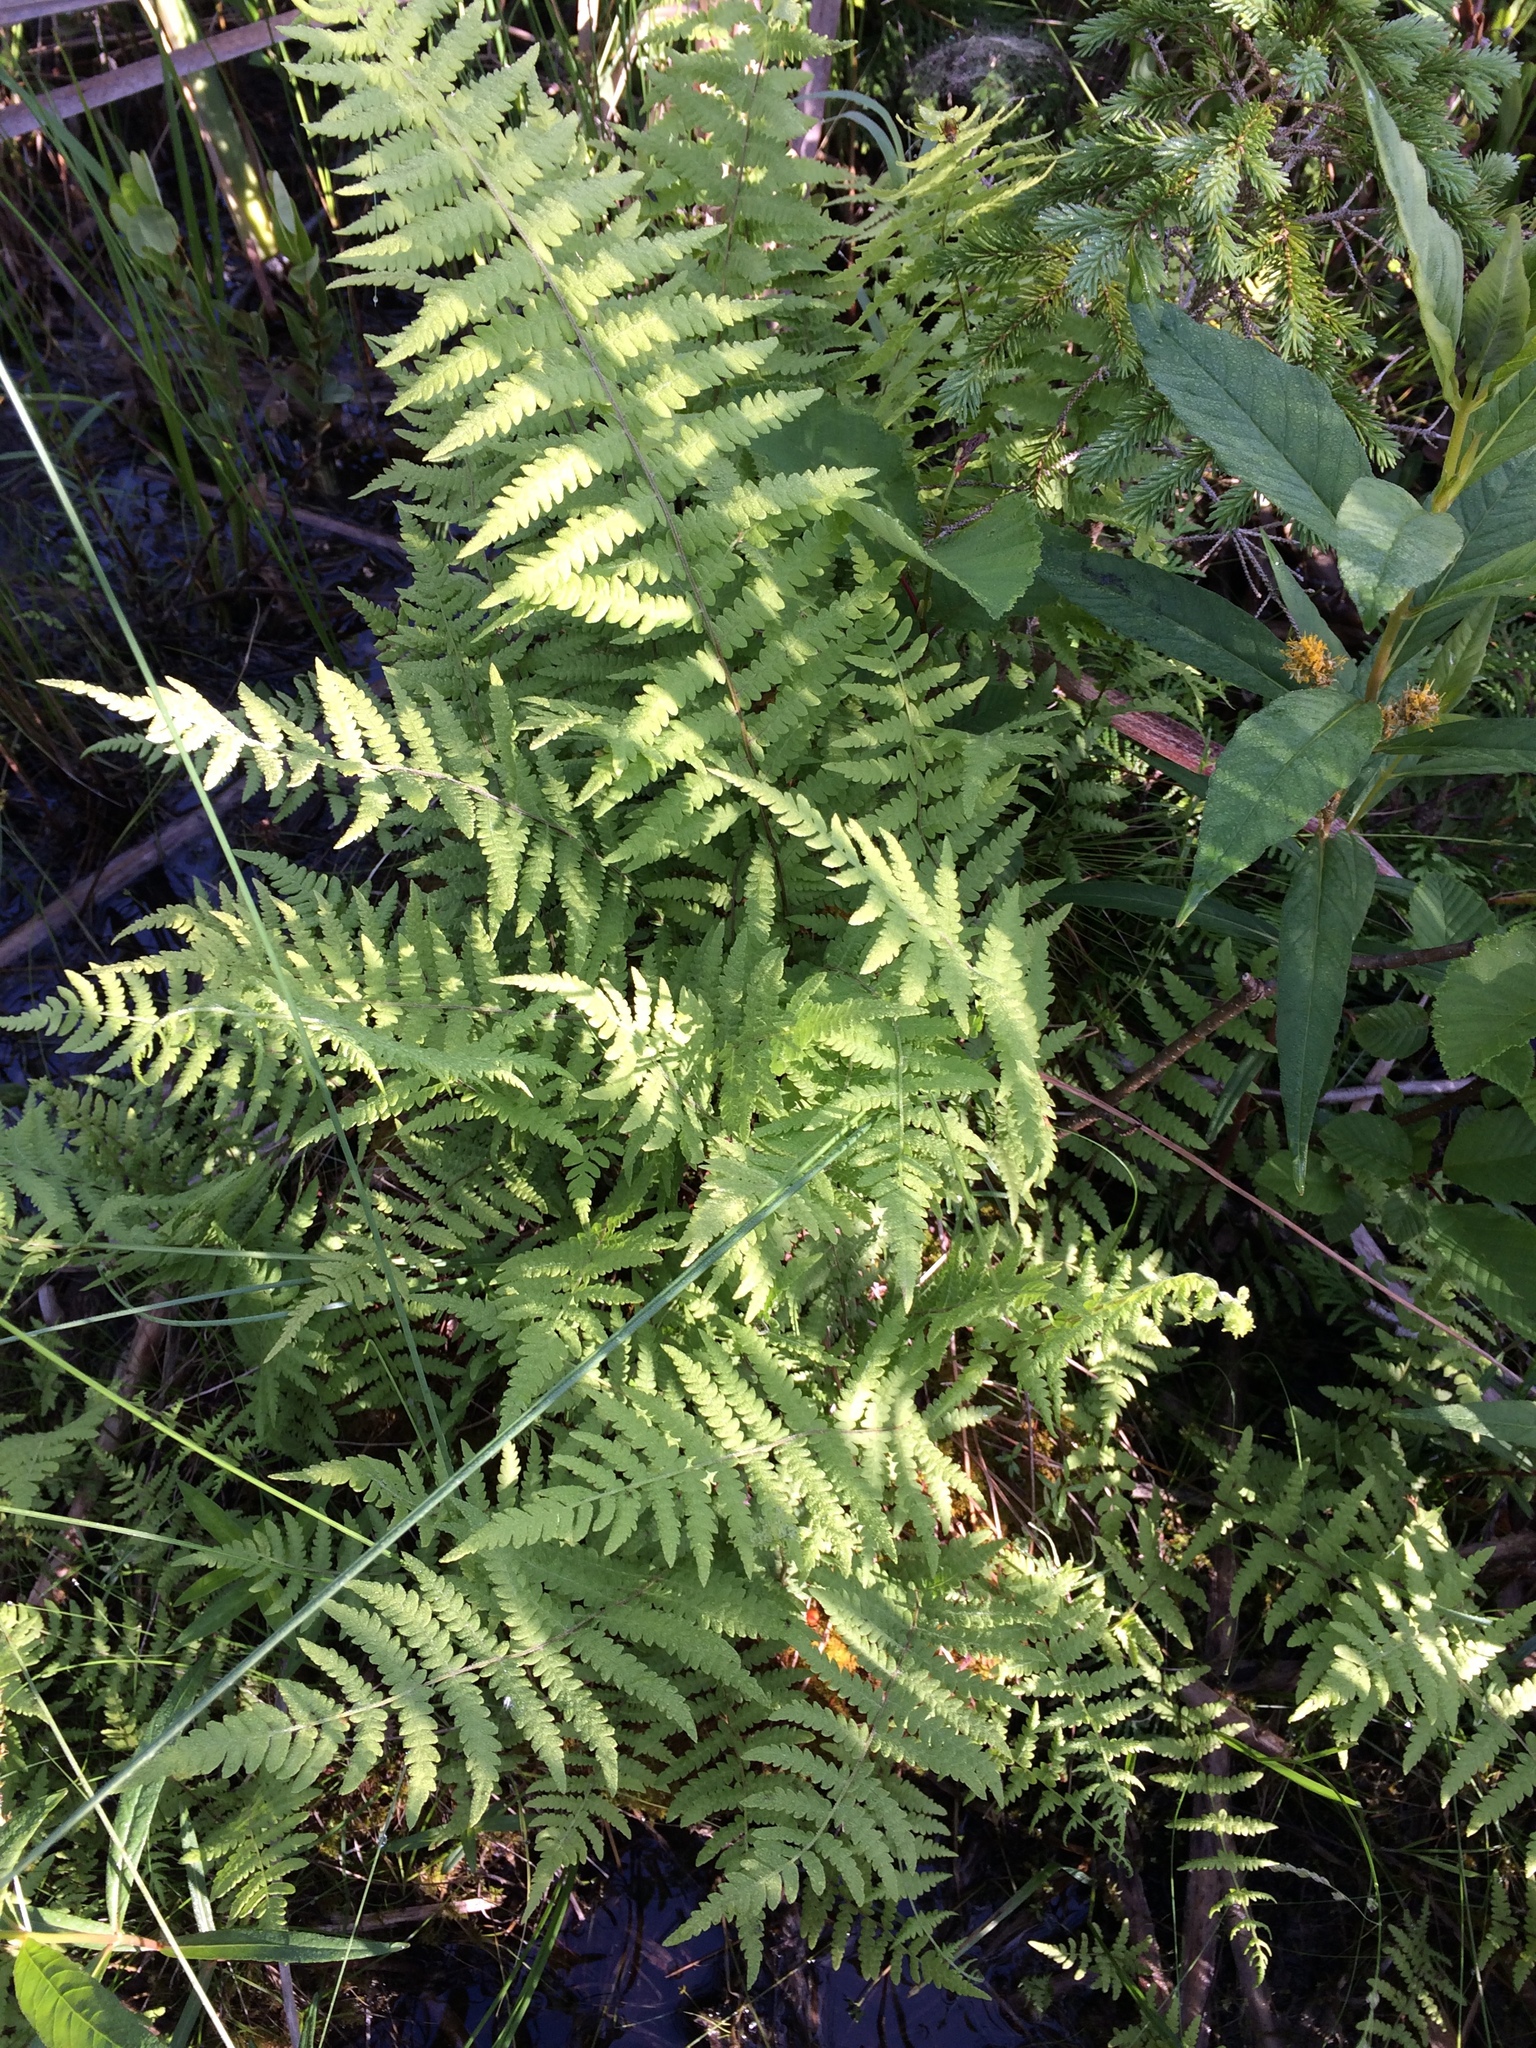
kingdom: Plantae
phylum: Tracheophyta
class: Polypodiopsida
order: Polypodiales
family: Thelypteridaceae
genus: Thelypteris
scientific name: Thelypteris palustris
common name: Marsh fern
